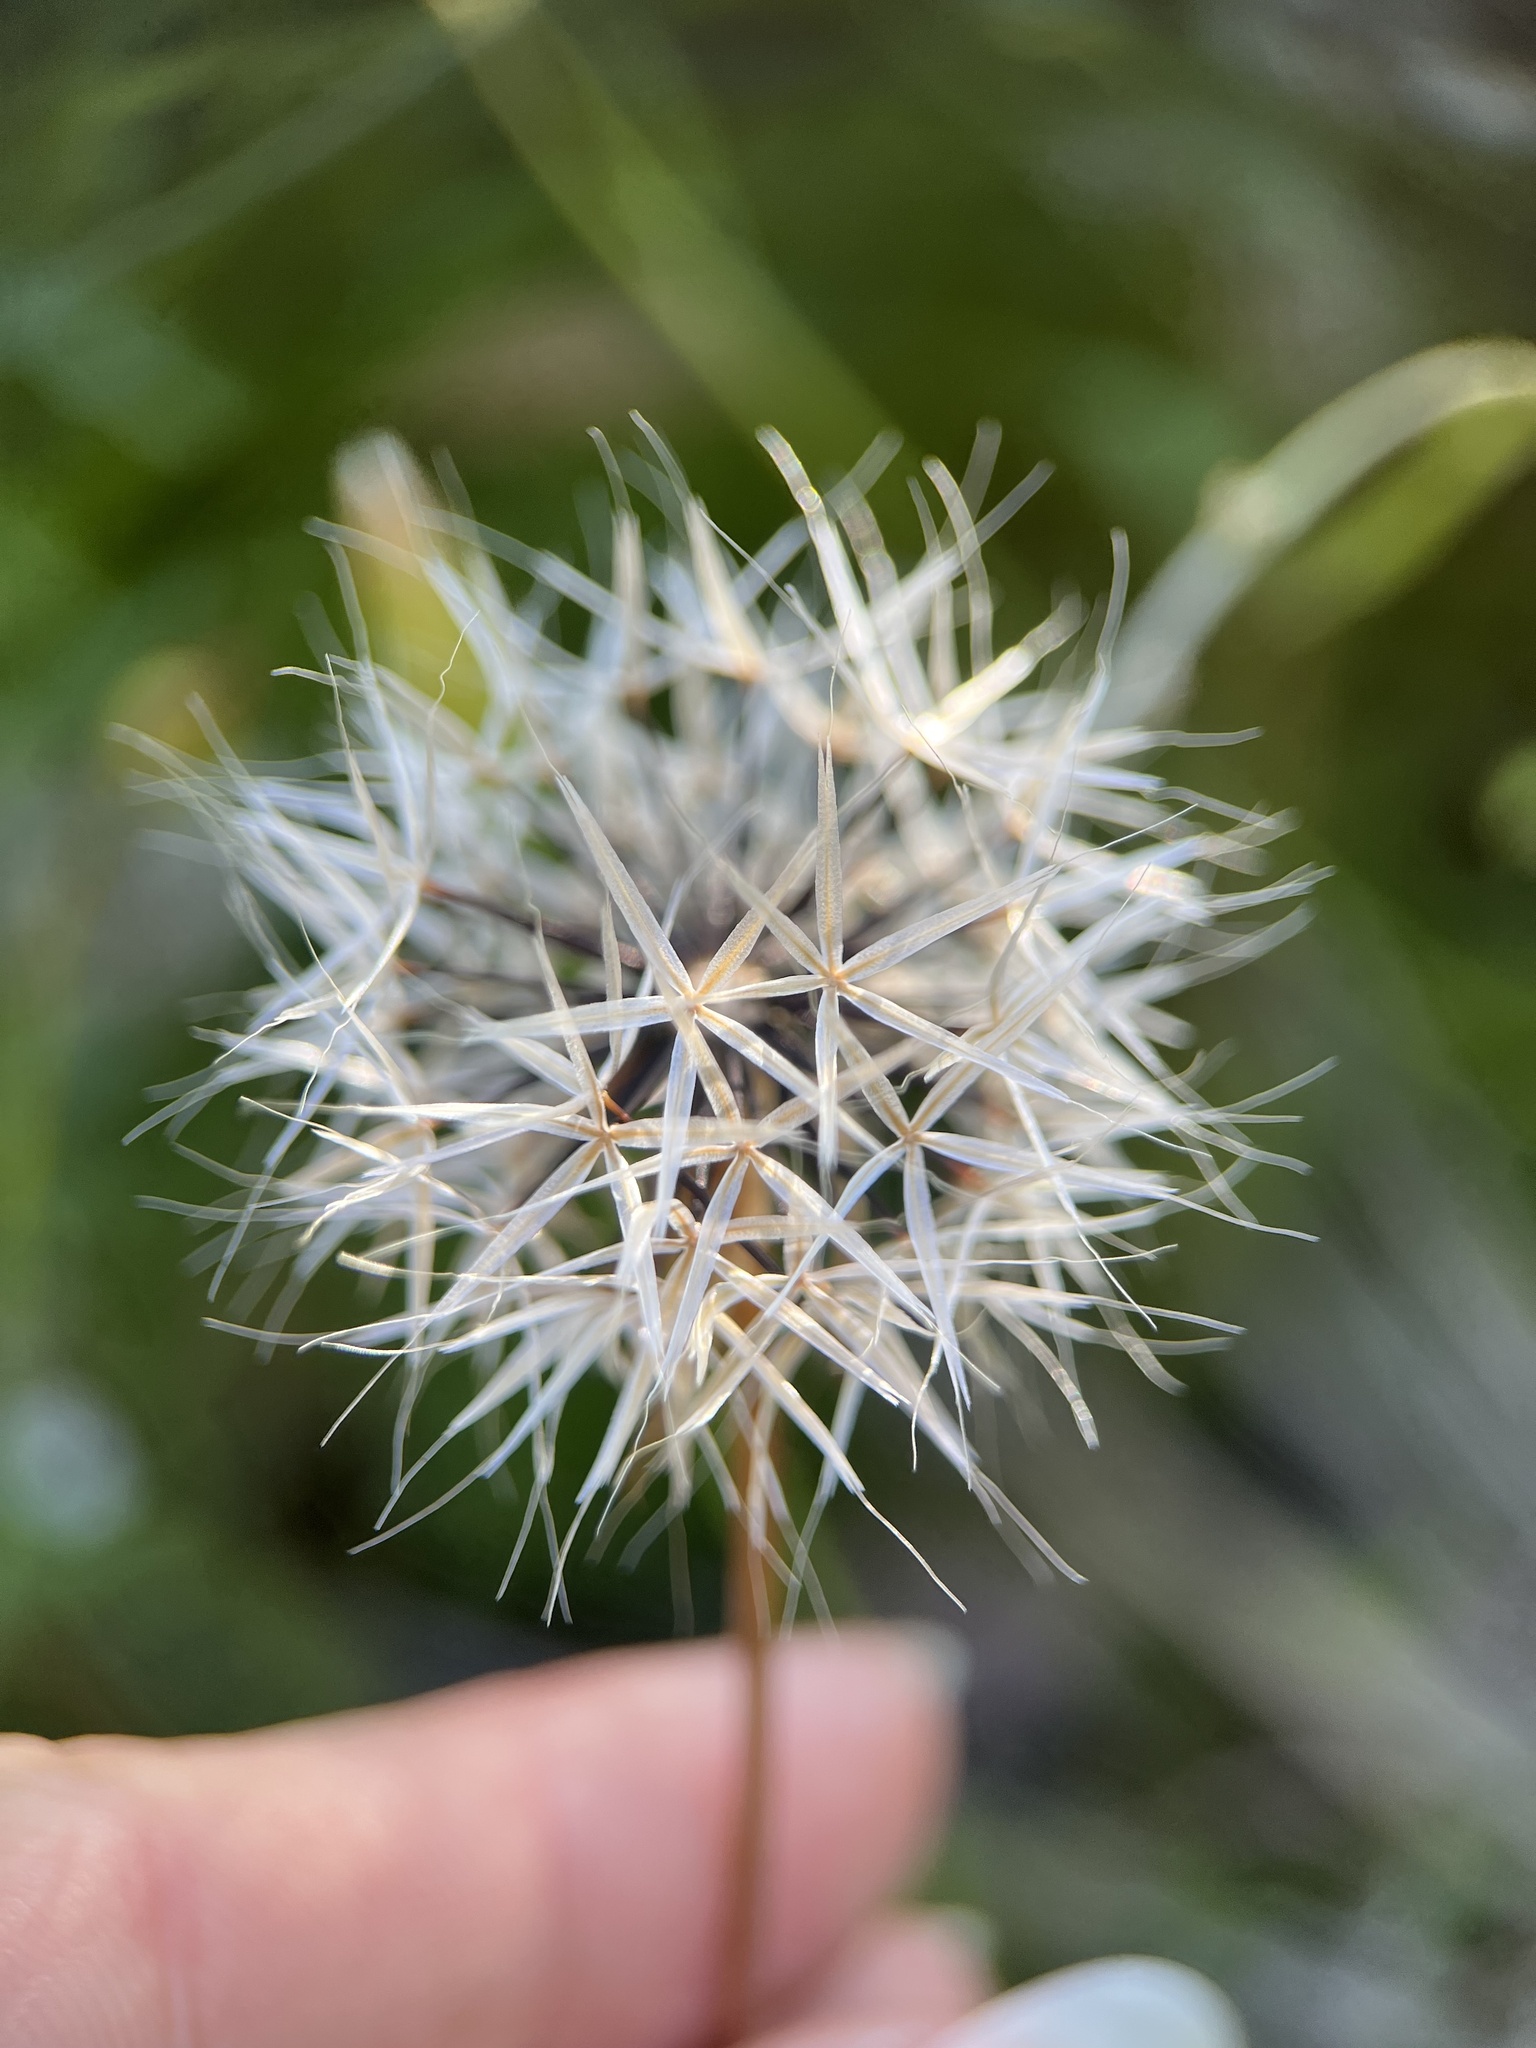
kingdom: Plantae
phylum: Tracheophyta
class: Magnoliopsida
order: Asterales
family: Asteraceae
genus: Microseris
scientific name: Microseris lindleyi
